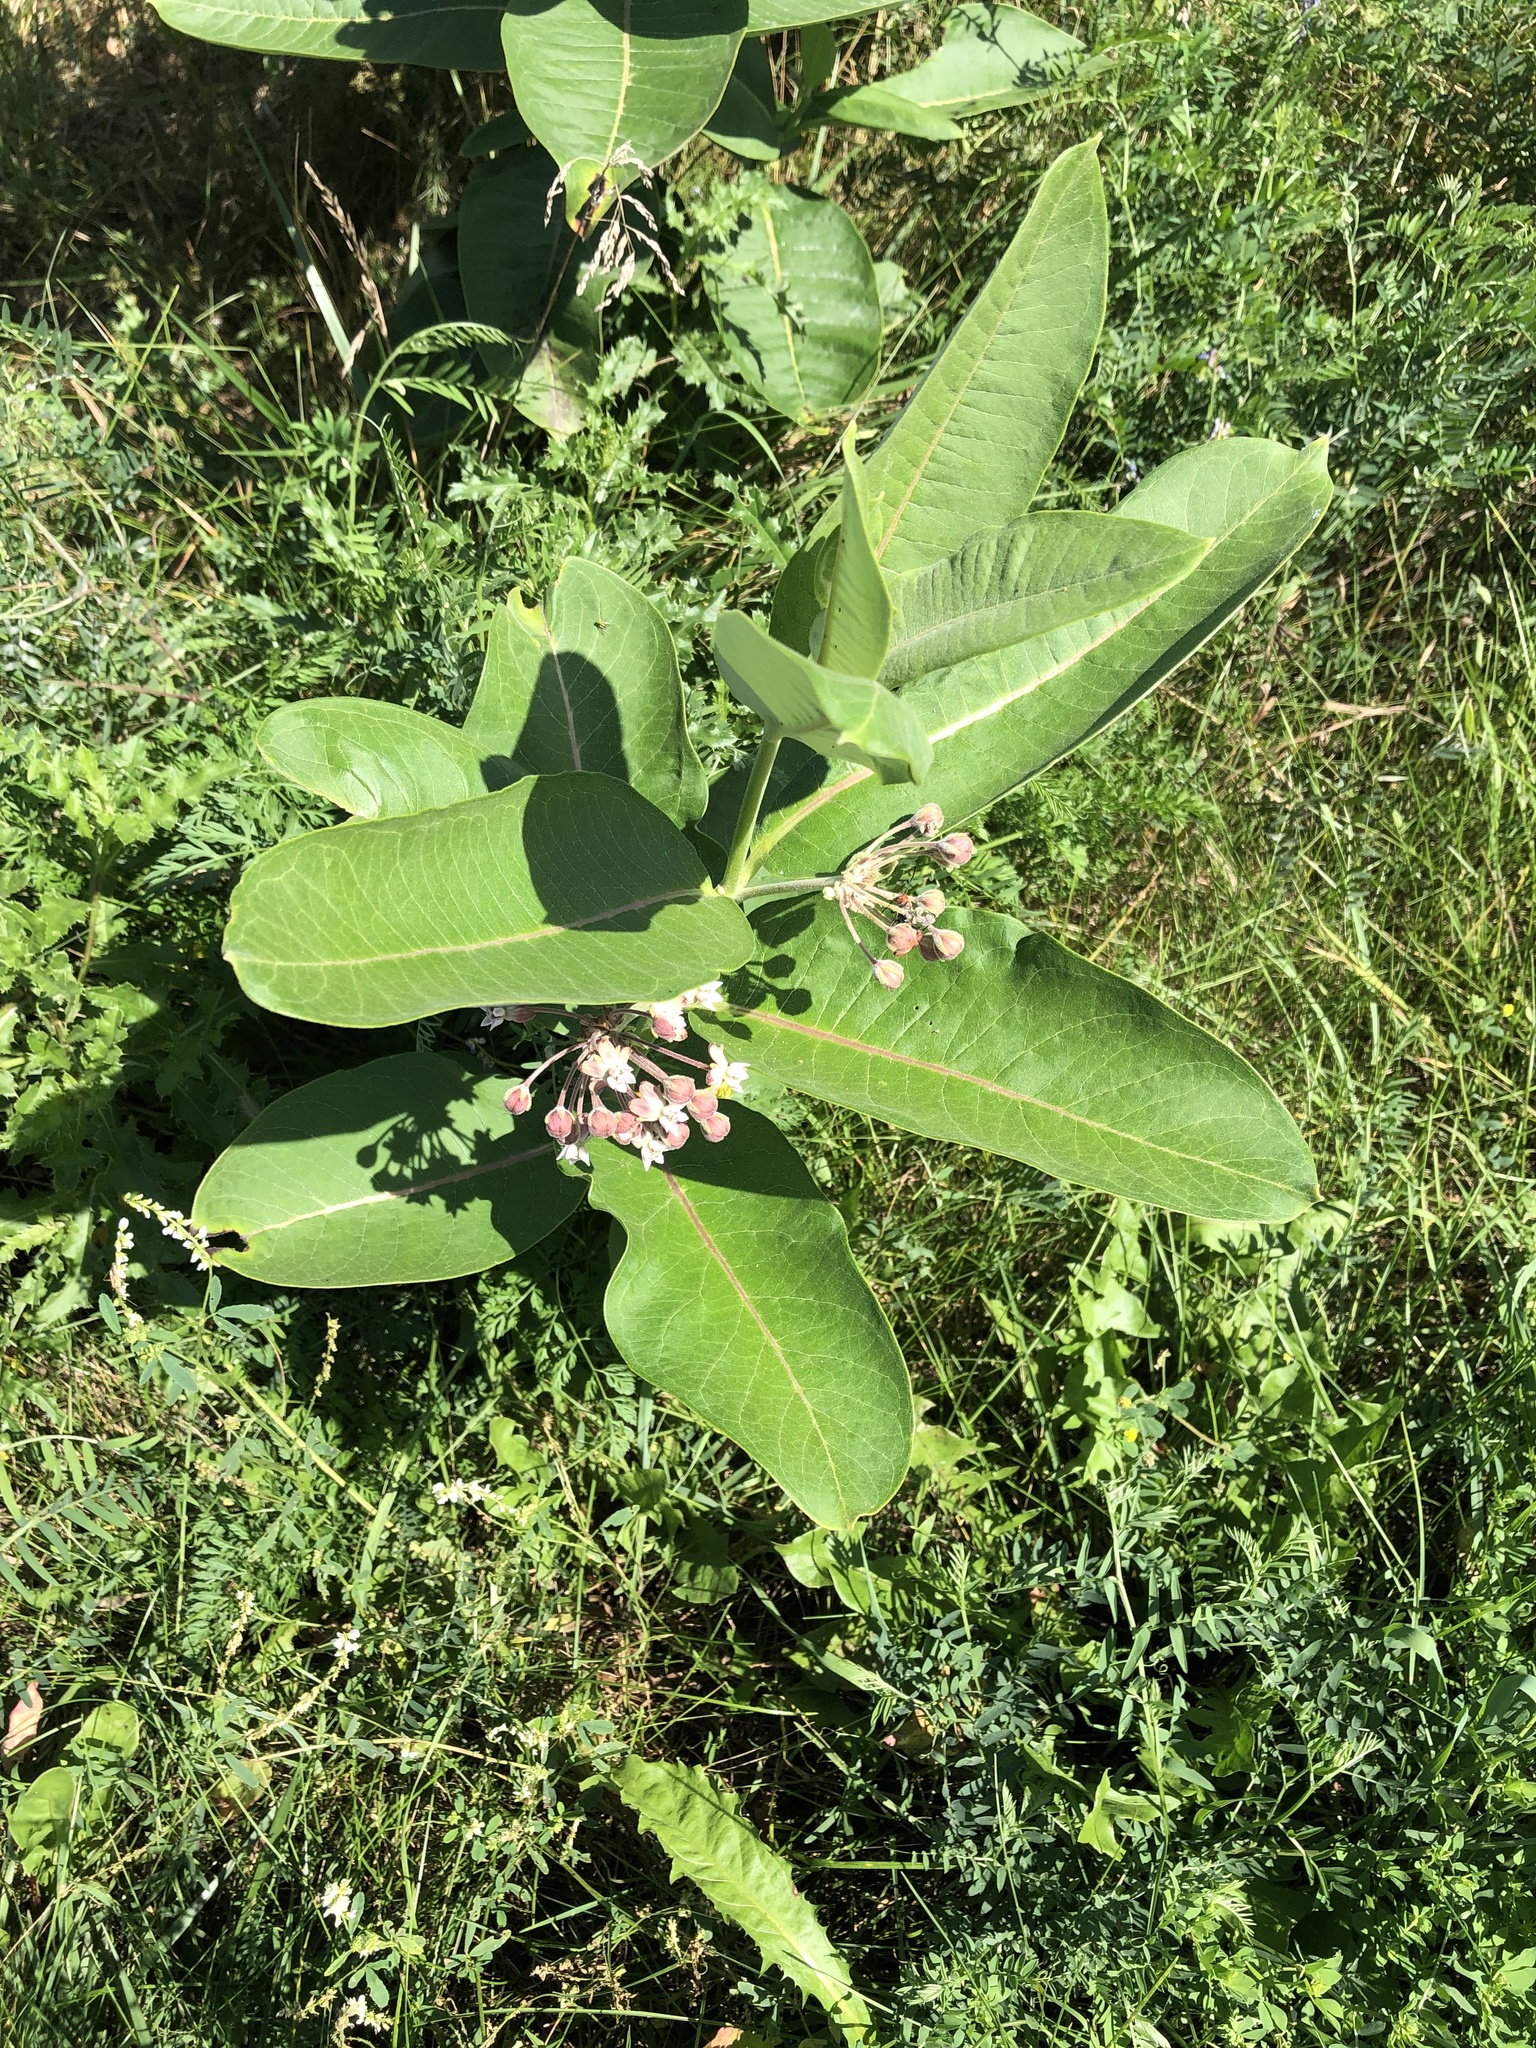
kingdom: Plantae
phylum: Tracheophyta
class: Magnoliopsida
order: Gentianales
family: Apocynaceae
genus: Asclepias
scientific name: Asclepias syriaca
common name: Common milkweed
